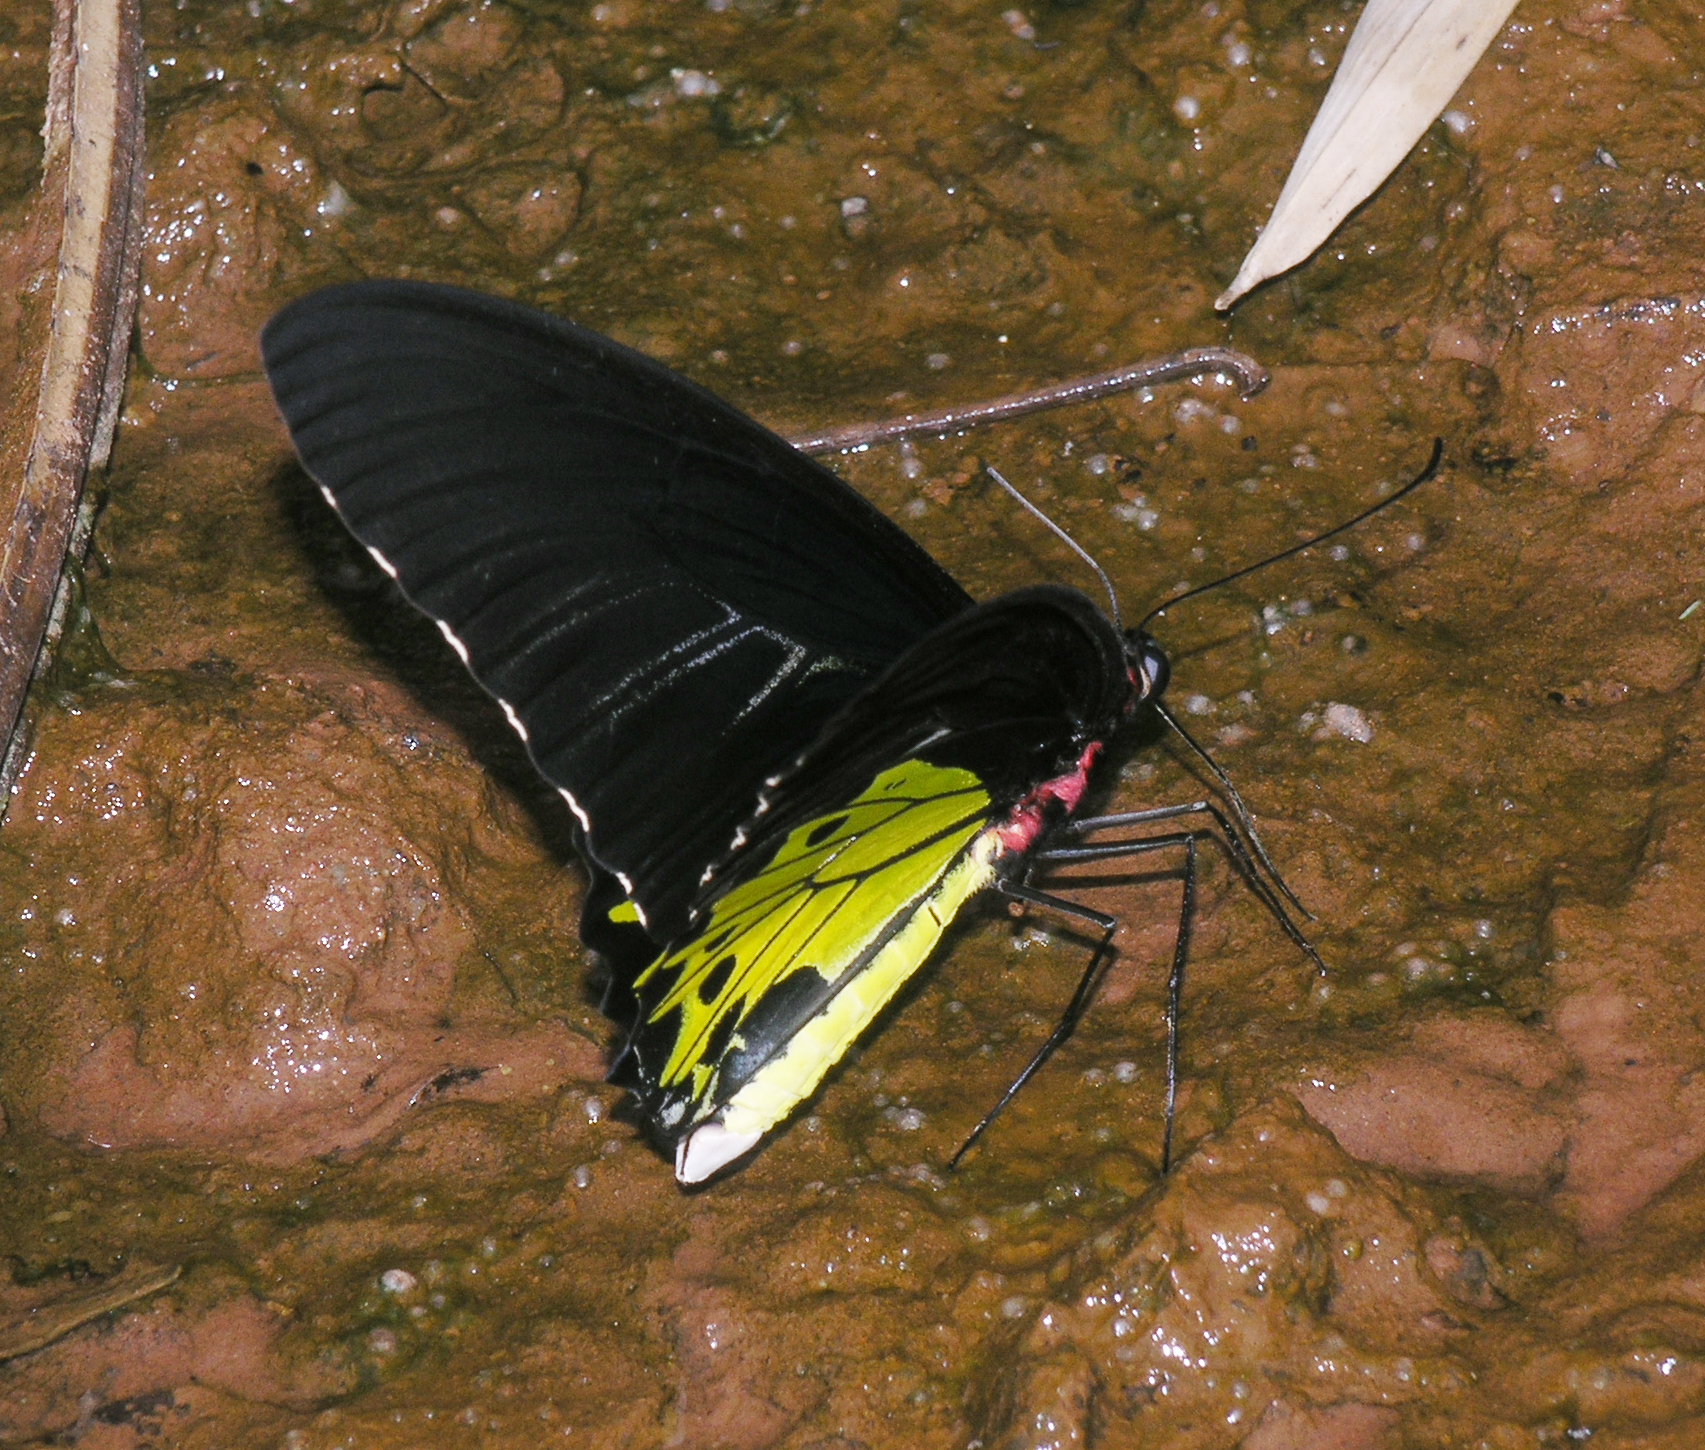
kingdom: Animalia
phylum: Arthropoda
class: Insecta
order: Lepidoptera
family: Papilionidae
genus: Troides
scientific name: Troides helena
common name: Common birdwing
